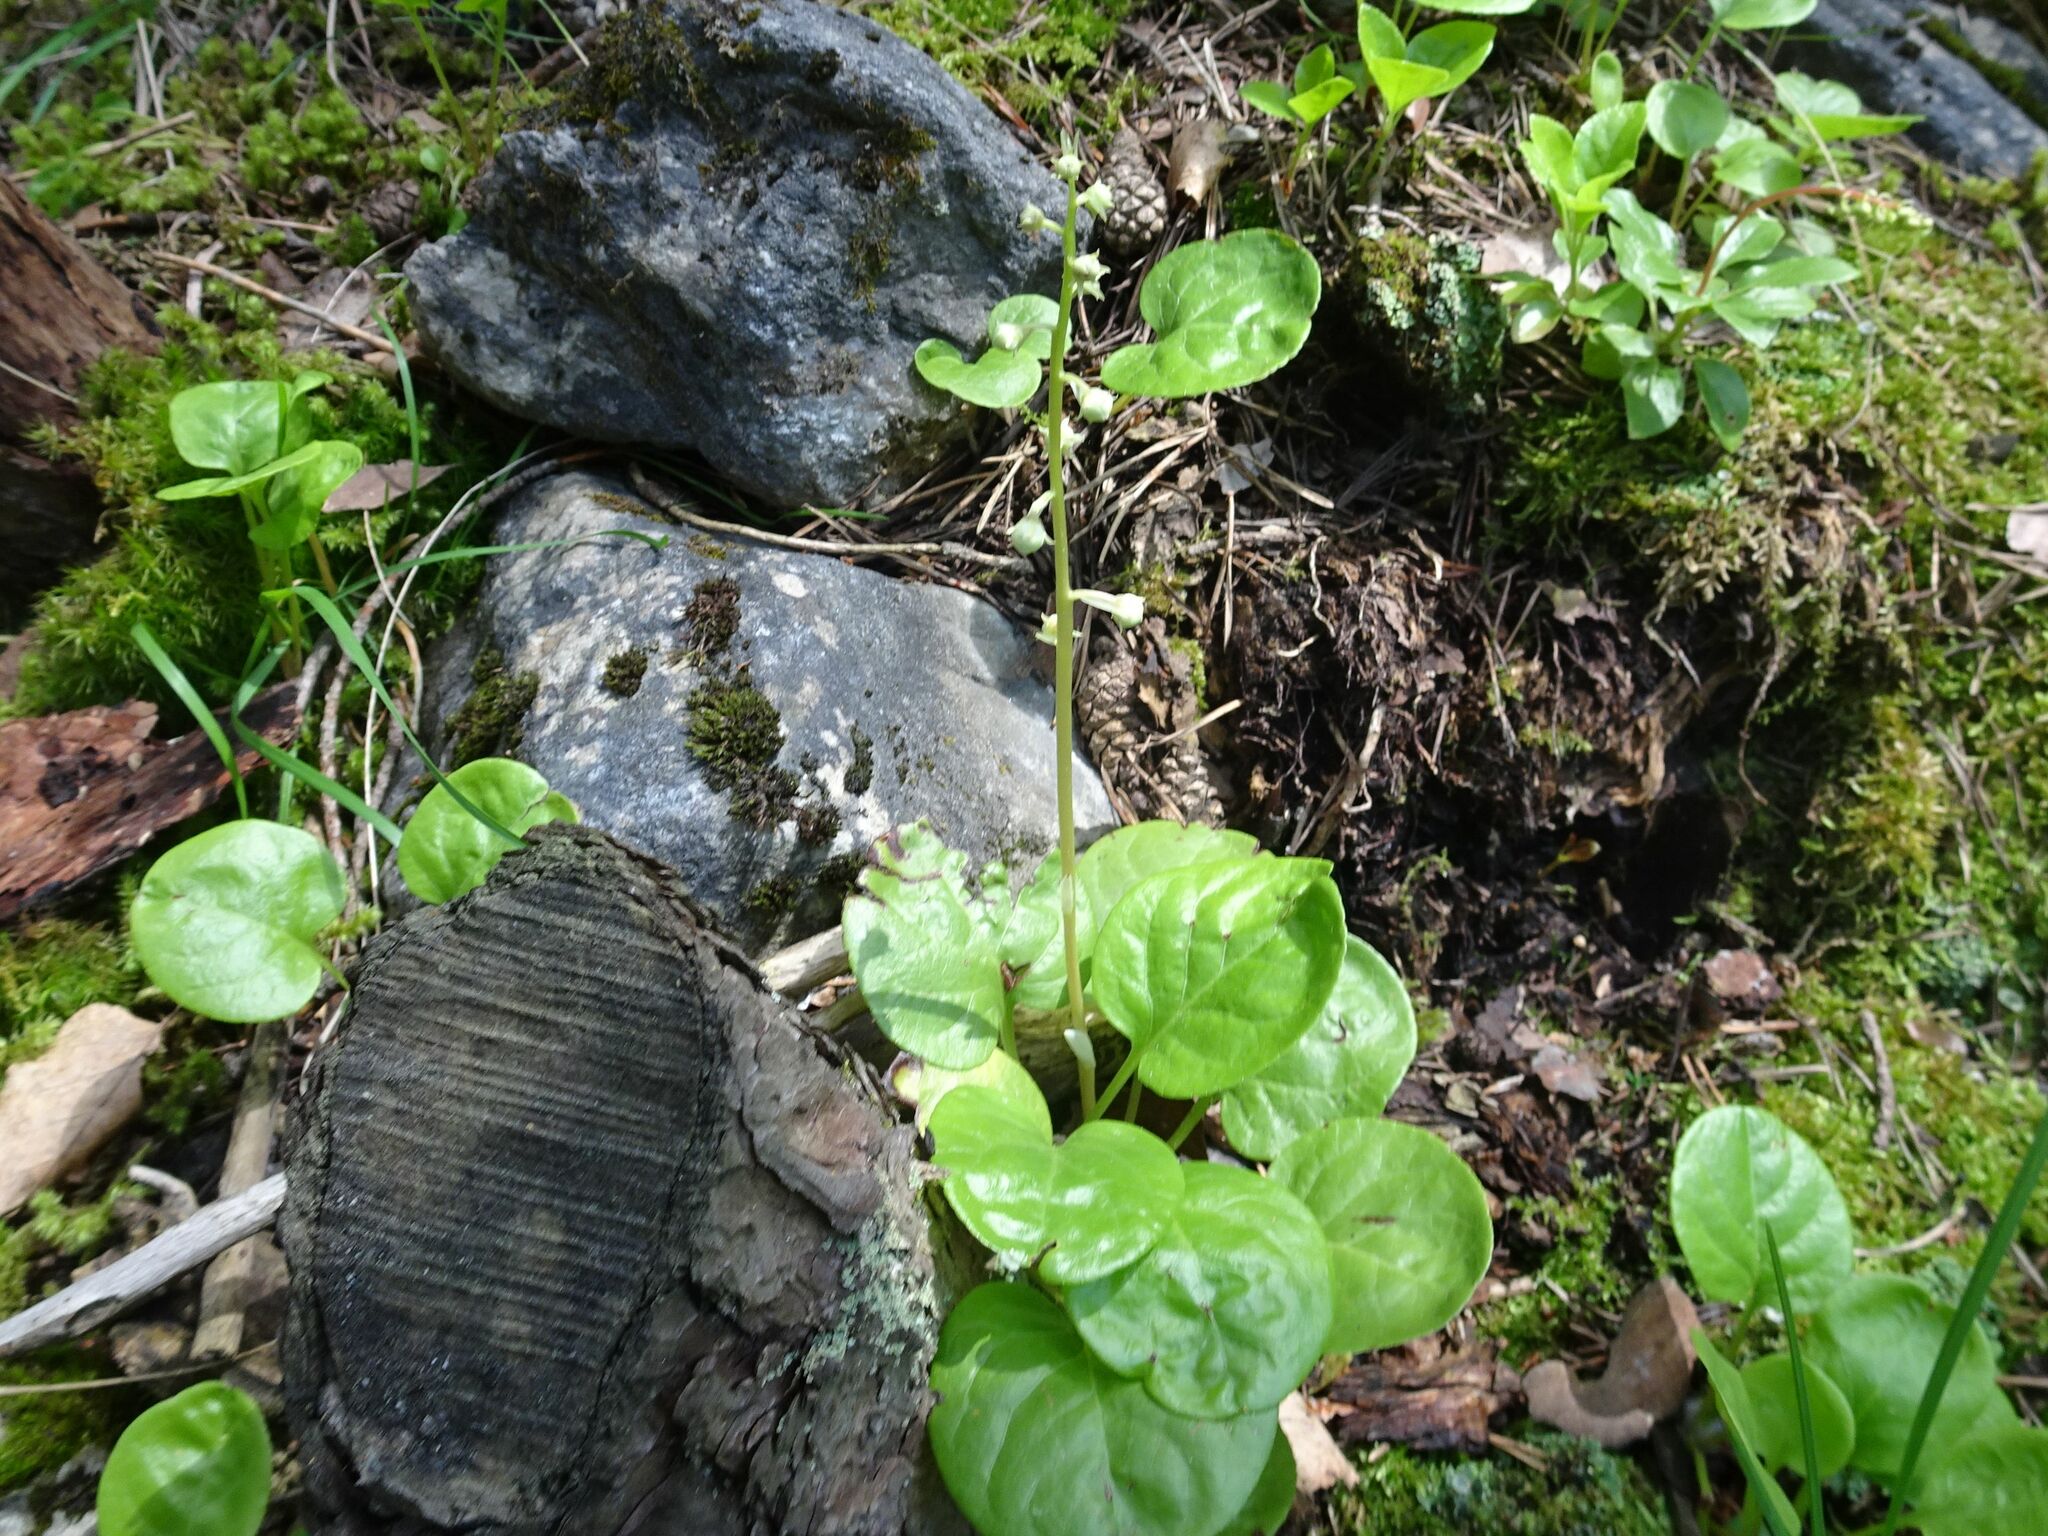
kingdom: Plantae
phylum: Tracheophyta
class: Magnoliopsida
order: Ericales
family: Ericaceae
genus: Pyrola
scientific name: Pyrola rotundifolia
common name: Round-leaved wintergreen
